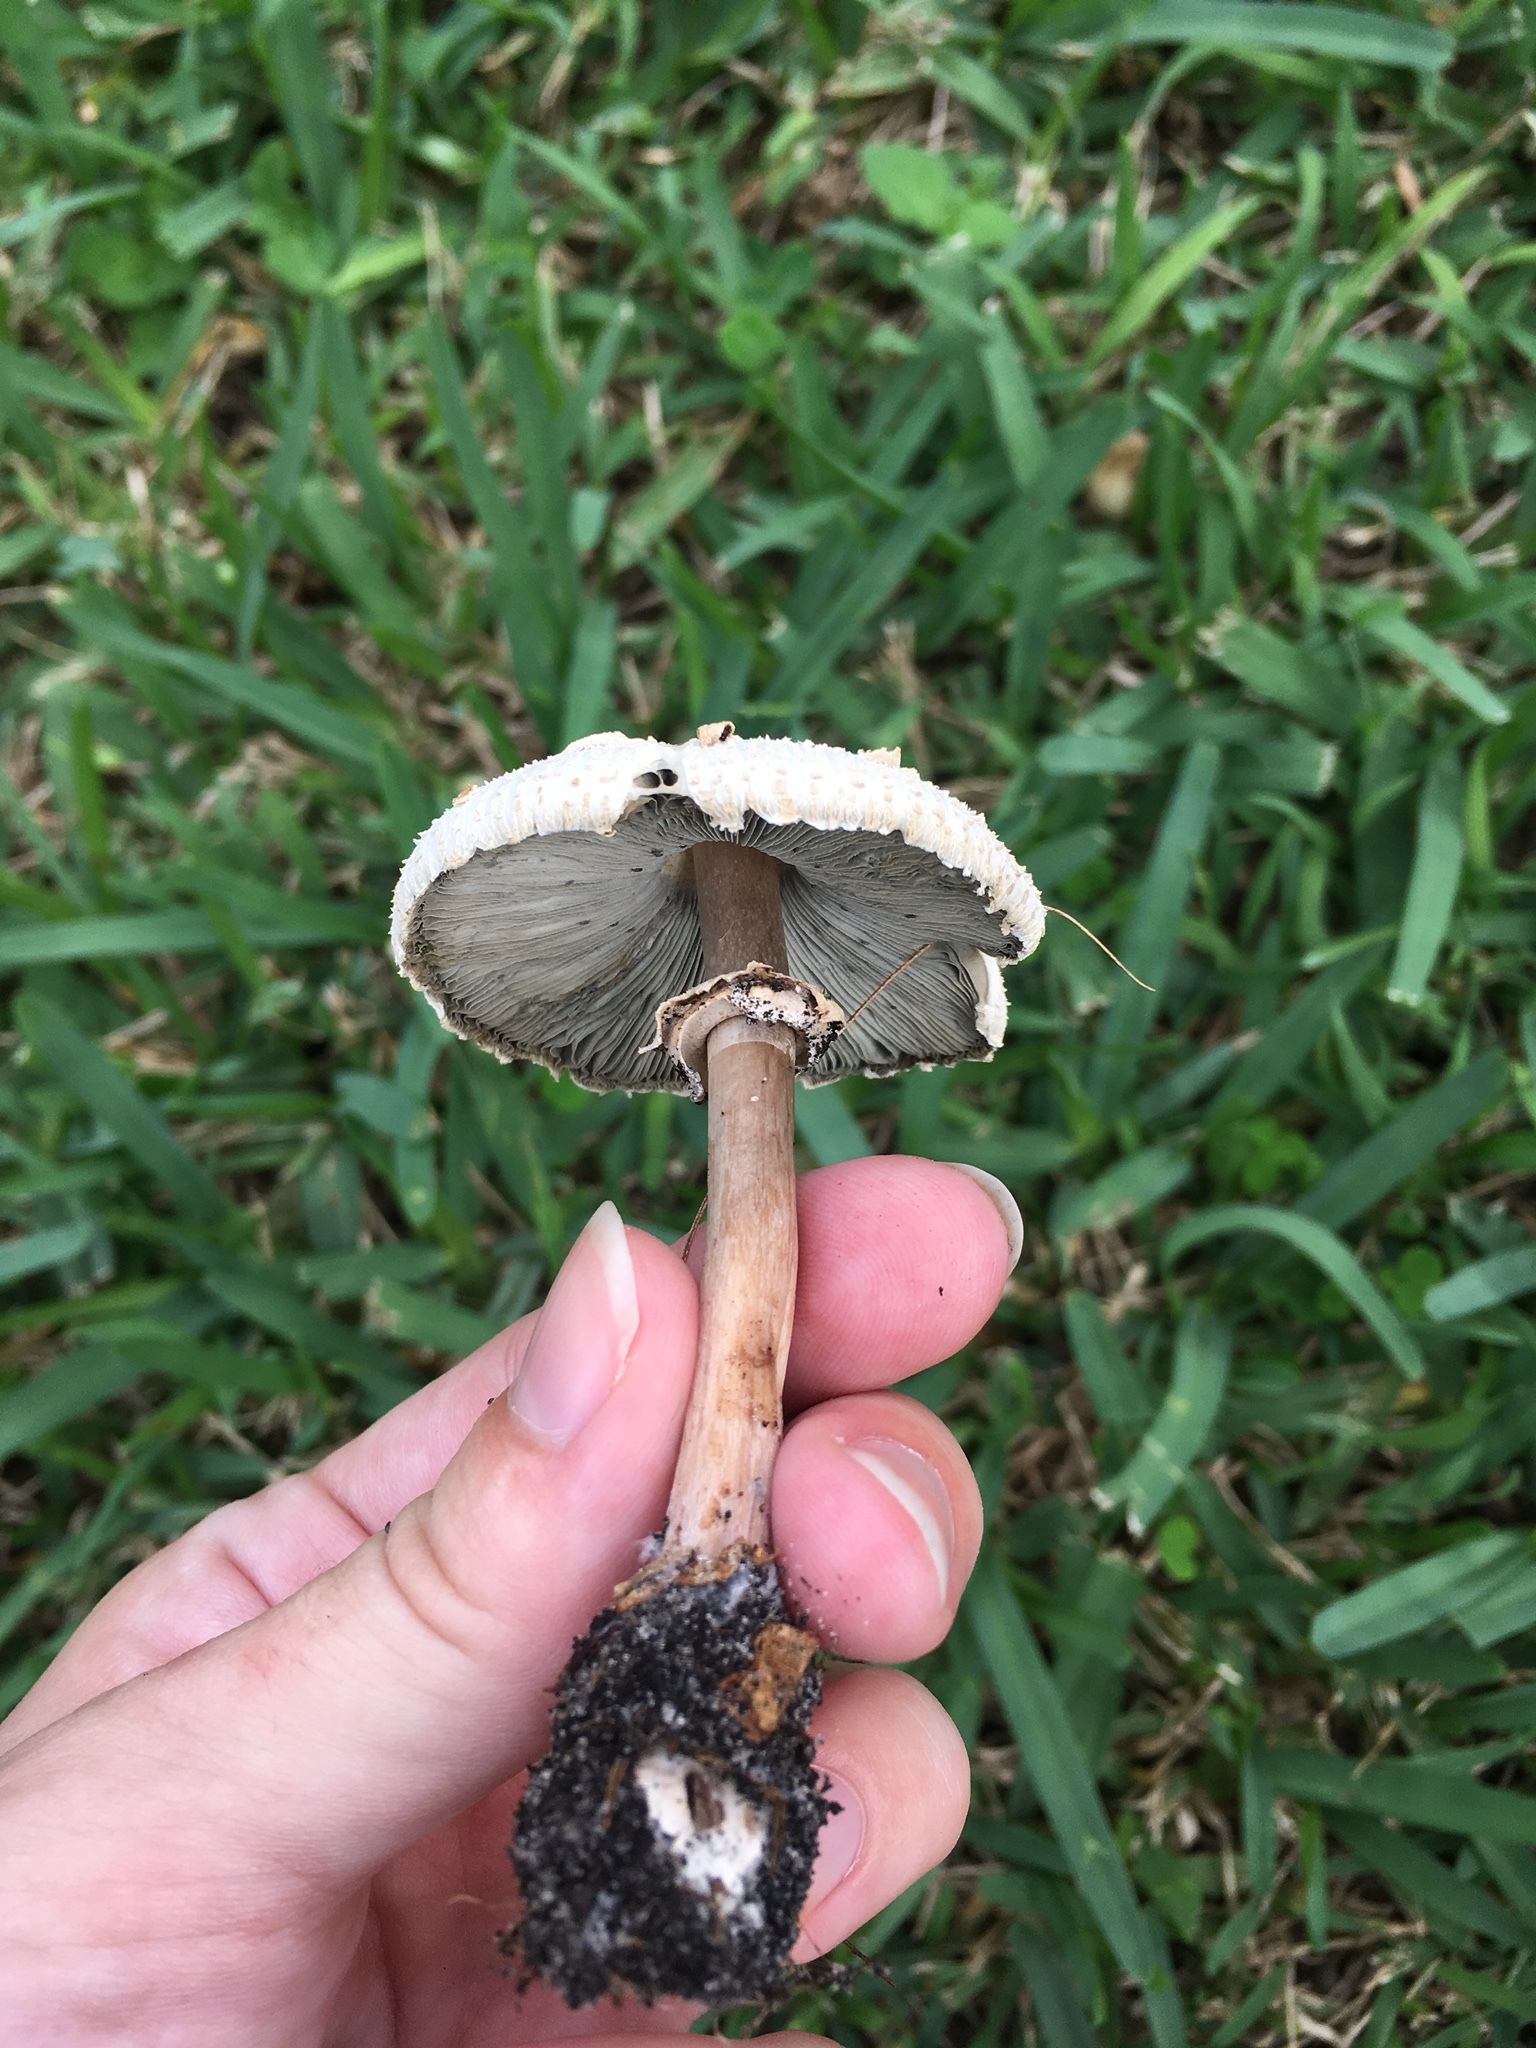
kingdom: Fungi
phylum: Basidiomycota
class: Agaricomycetes
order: Agaricales
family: Agaricaceae
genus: Chlorophyllum
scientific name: Chlorophyllum molybdites
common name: False parasol
